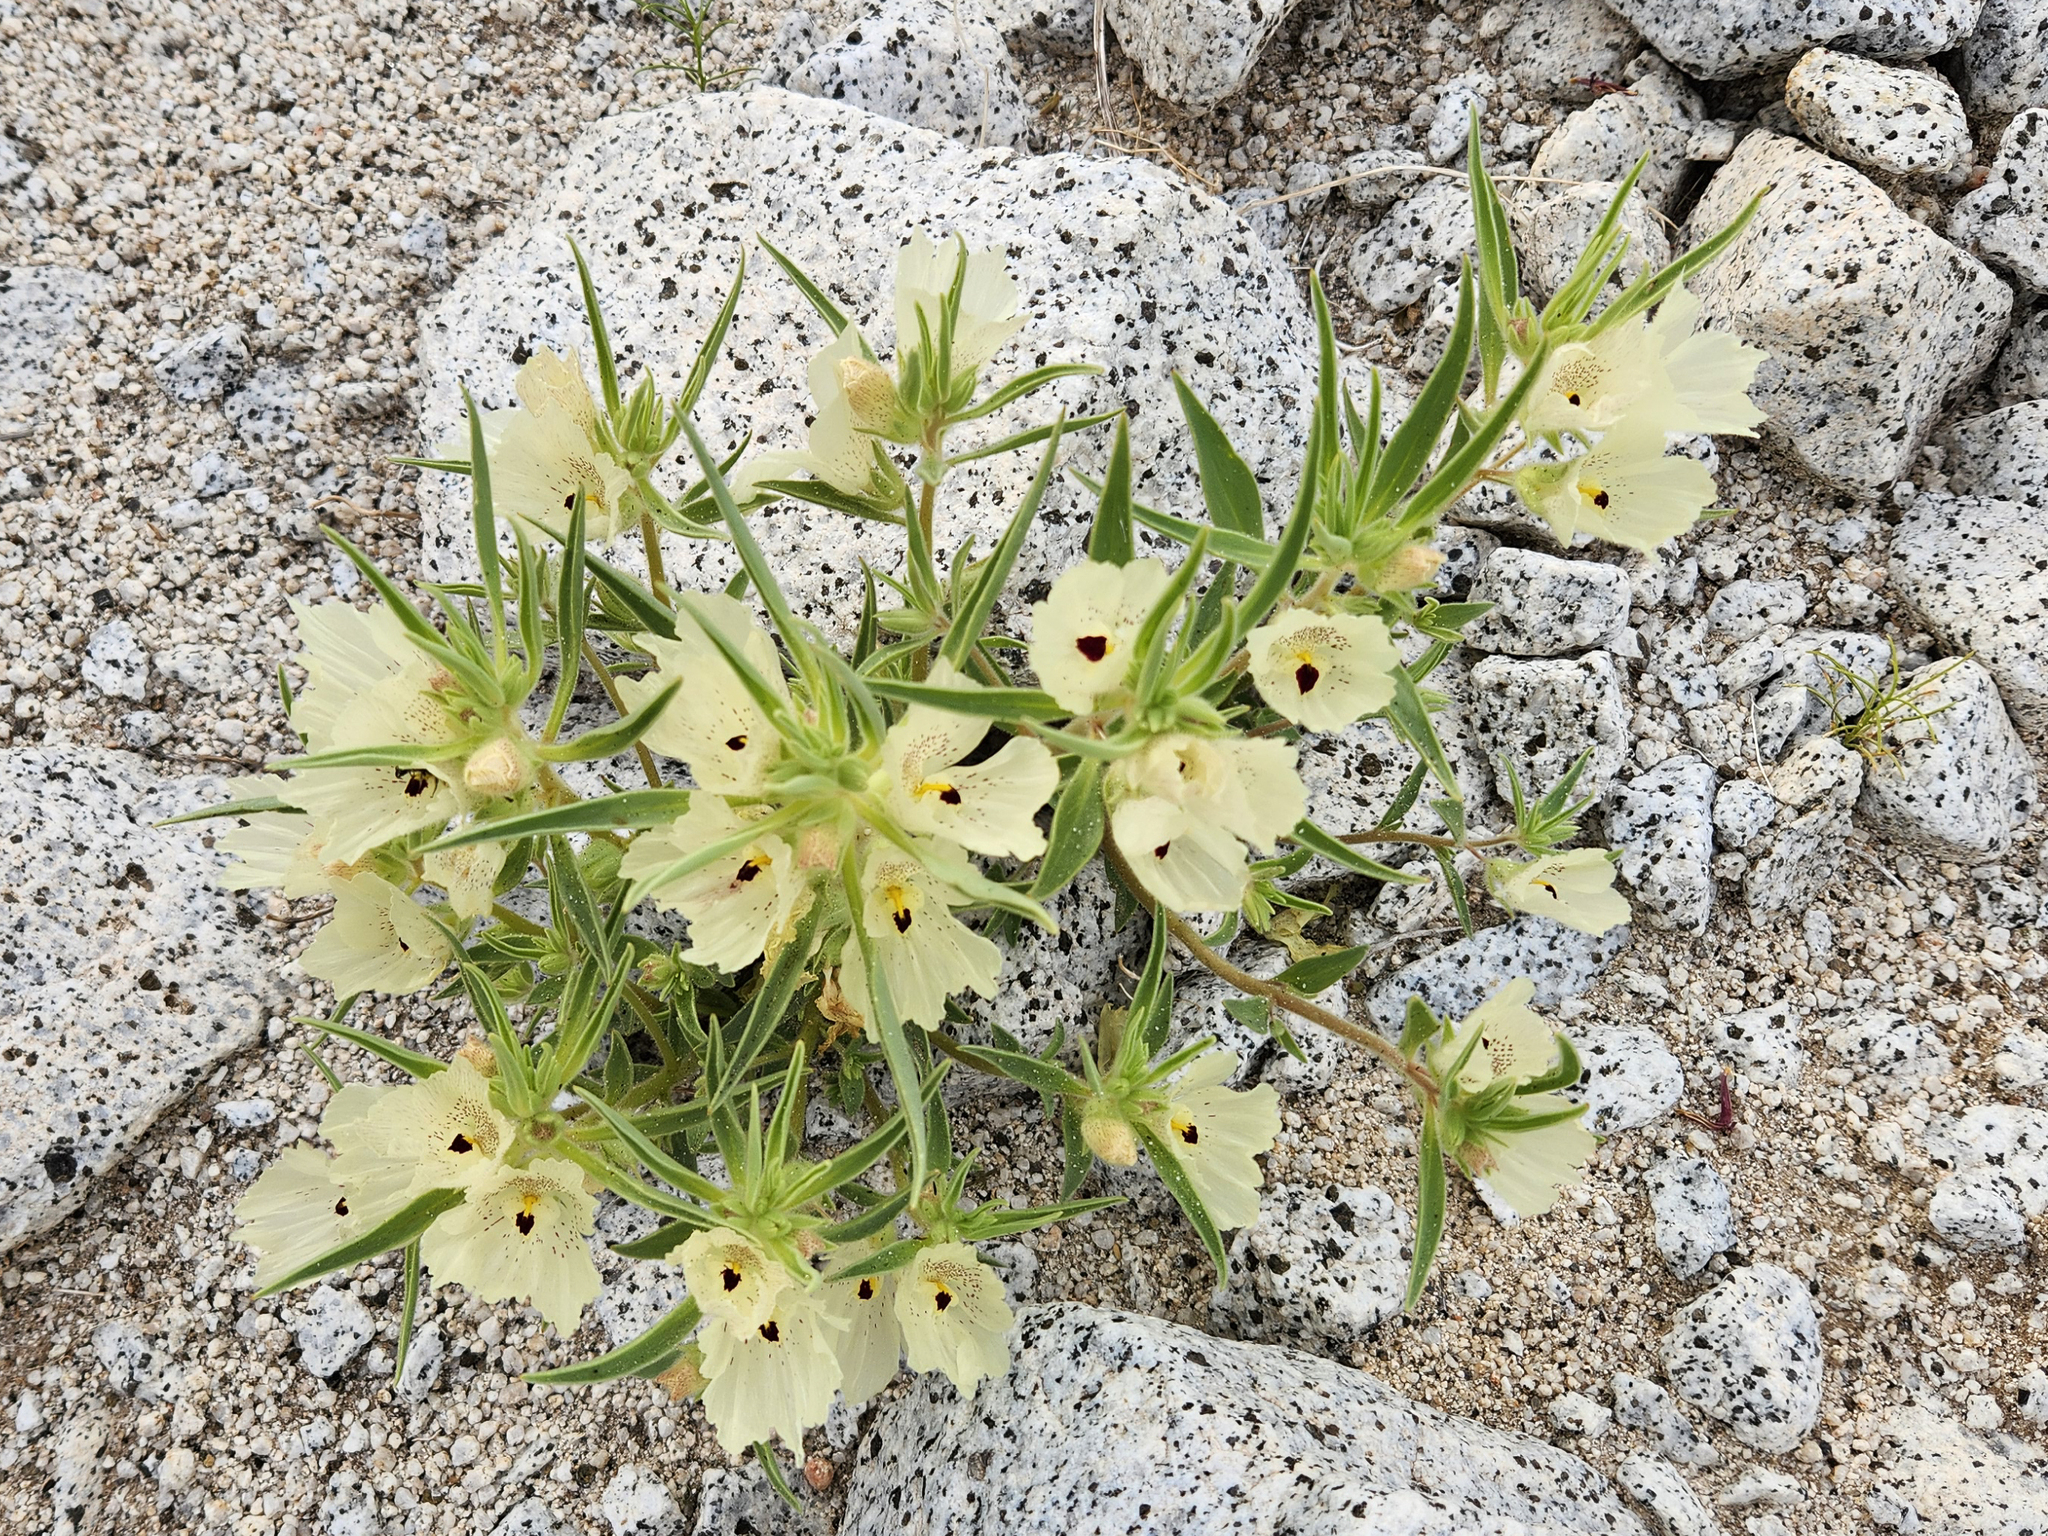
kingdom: Plantae
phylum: Tracheophyta
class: Magnoliopsida
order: Lamiales
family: Plantaginaceae
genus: Mohavea
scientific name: Mohavea confertiflora
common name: Ghost flower
